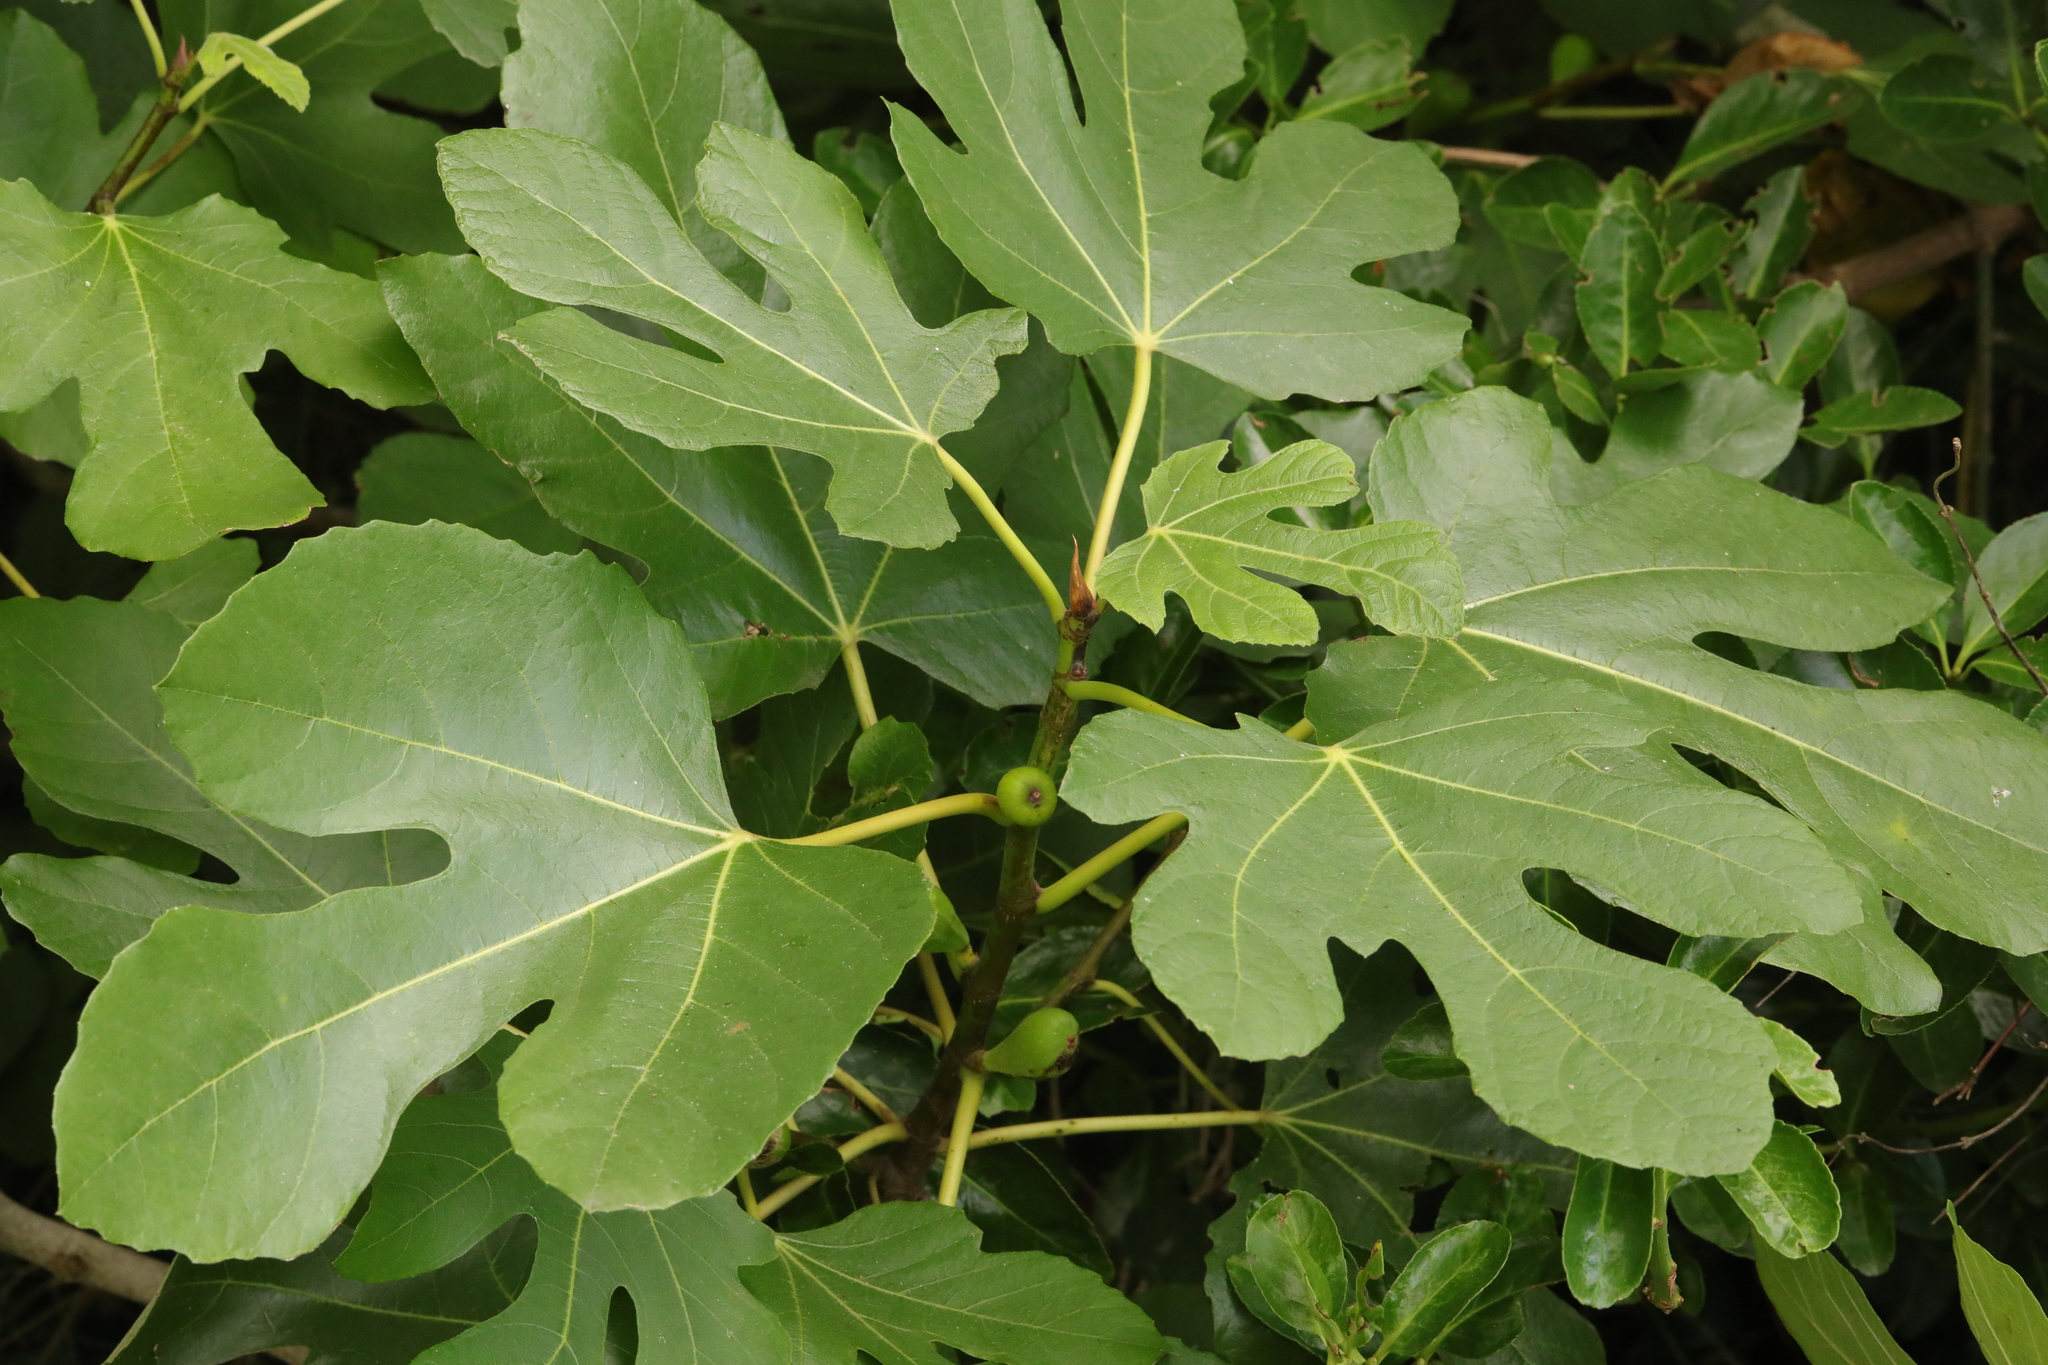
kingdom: Plantae
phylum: Tracheophyta
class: Magnoliopsida
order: Rosales
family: Moraceae
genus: Ficus
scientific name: Ficus carica
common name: Fig
